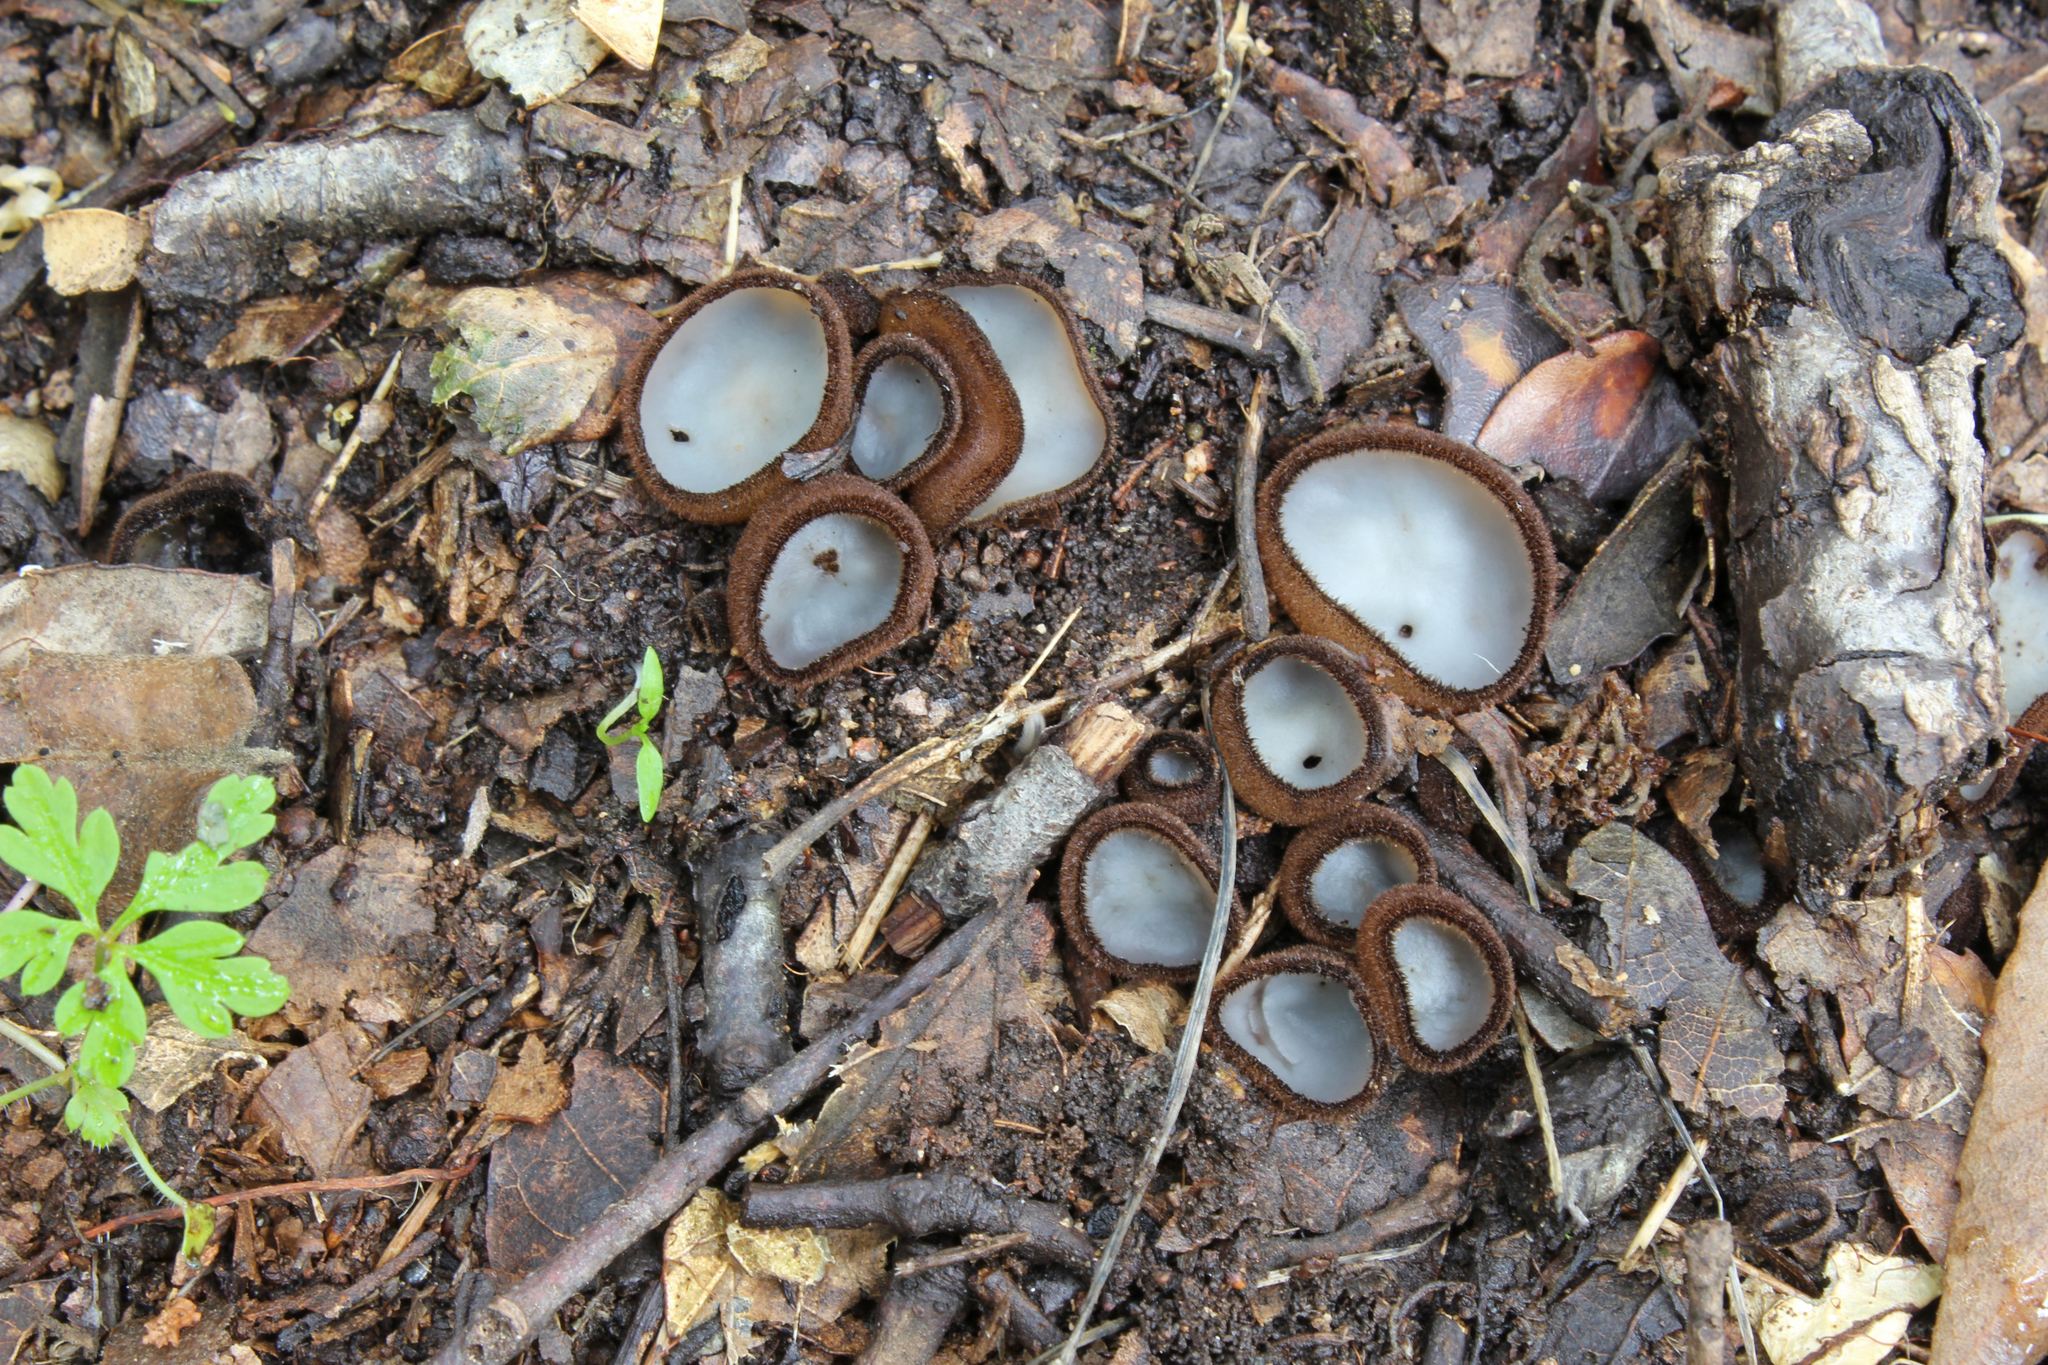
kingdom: Fungi
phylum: Ascomycota
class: Pezizomycetes
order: Pezizales
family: Pyronemataceae
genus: Humaria
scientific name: Humaria hemisphaerica
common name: Glazed cup
